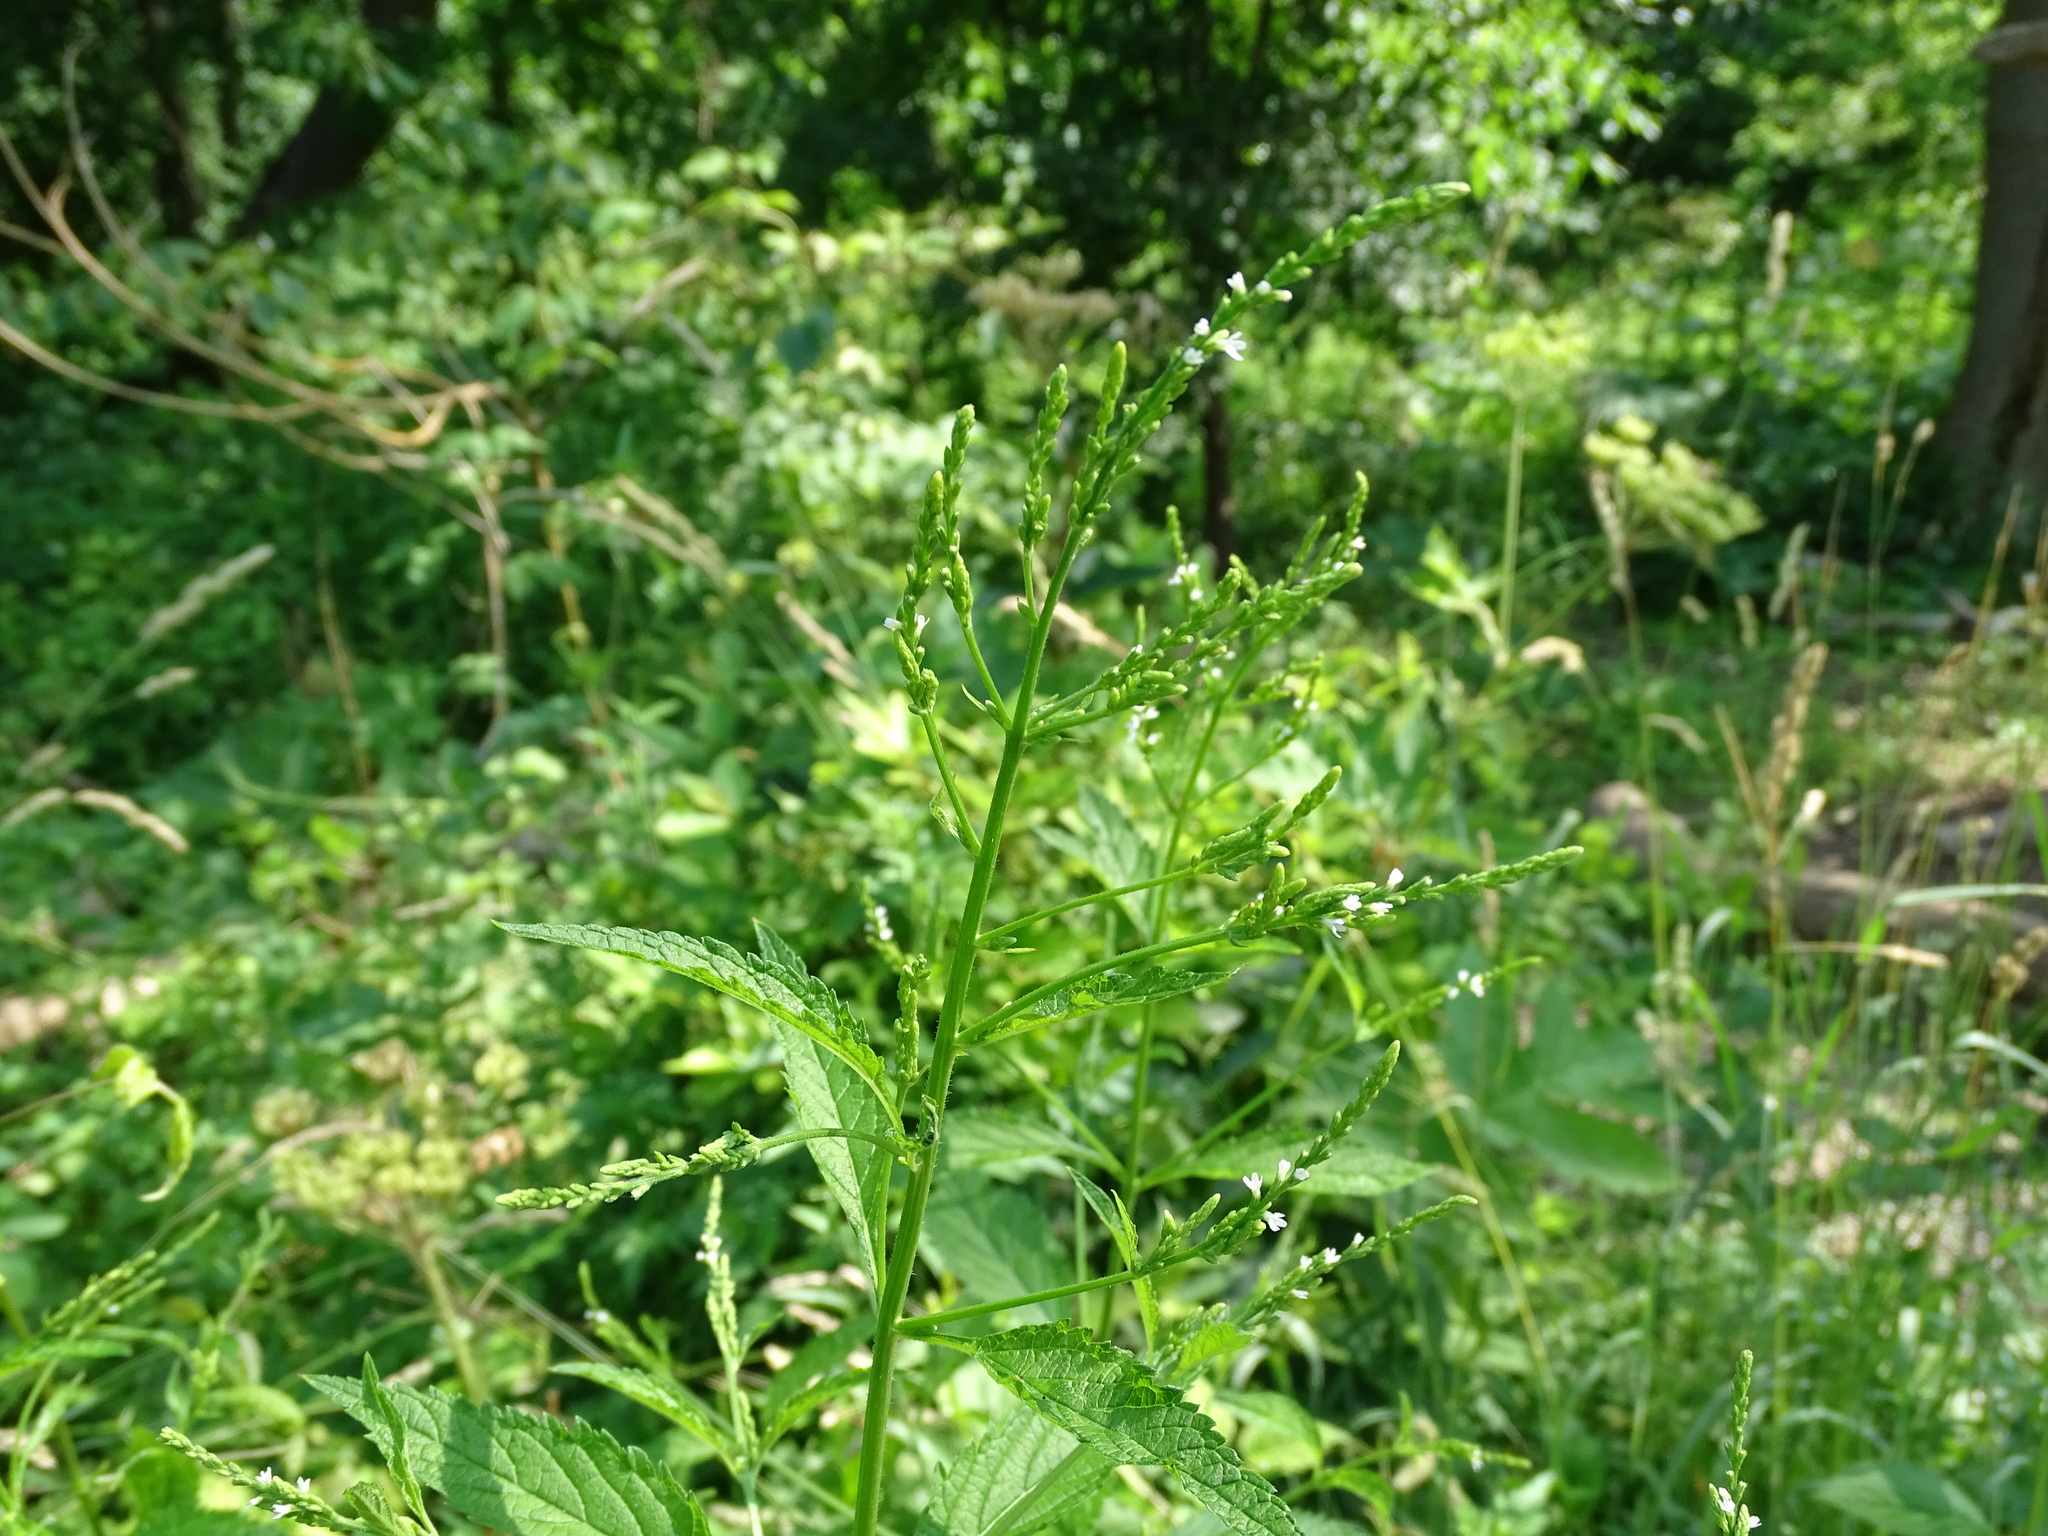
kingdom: Plantae
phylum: Tracheophyta
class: Magnoliopsida
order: Lamiales
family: Verbenaceae
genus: Verbena
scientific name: Verbena urticifolia
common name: Nettle-leaved vervain
